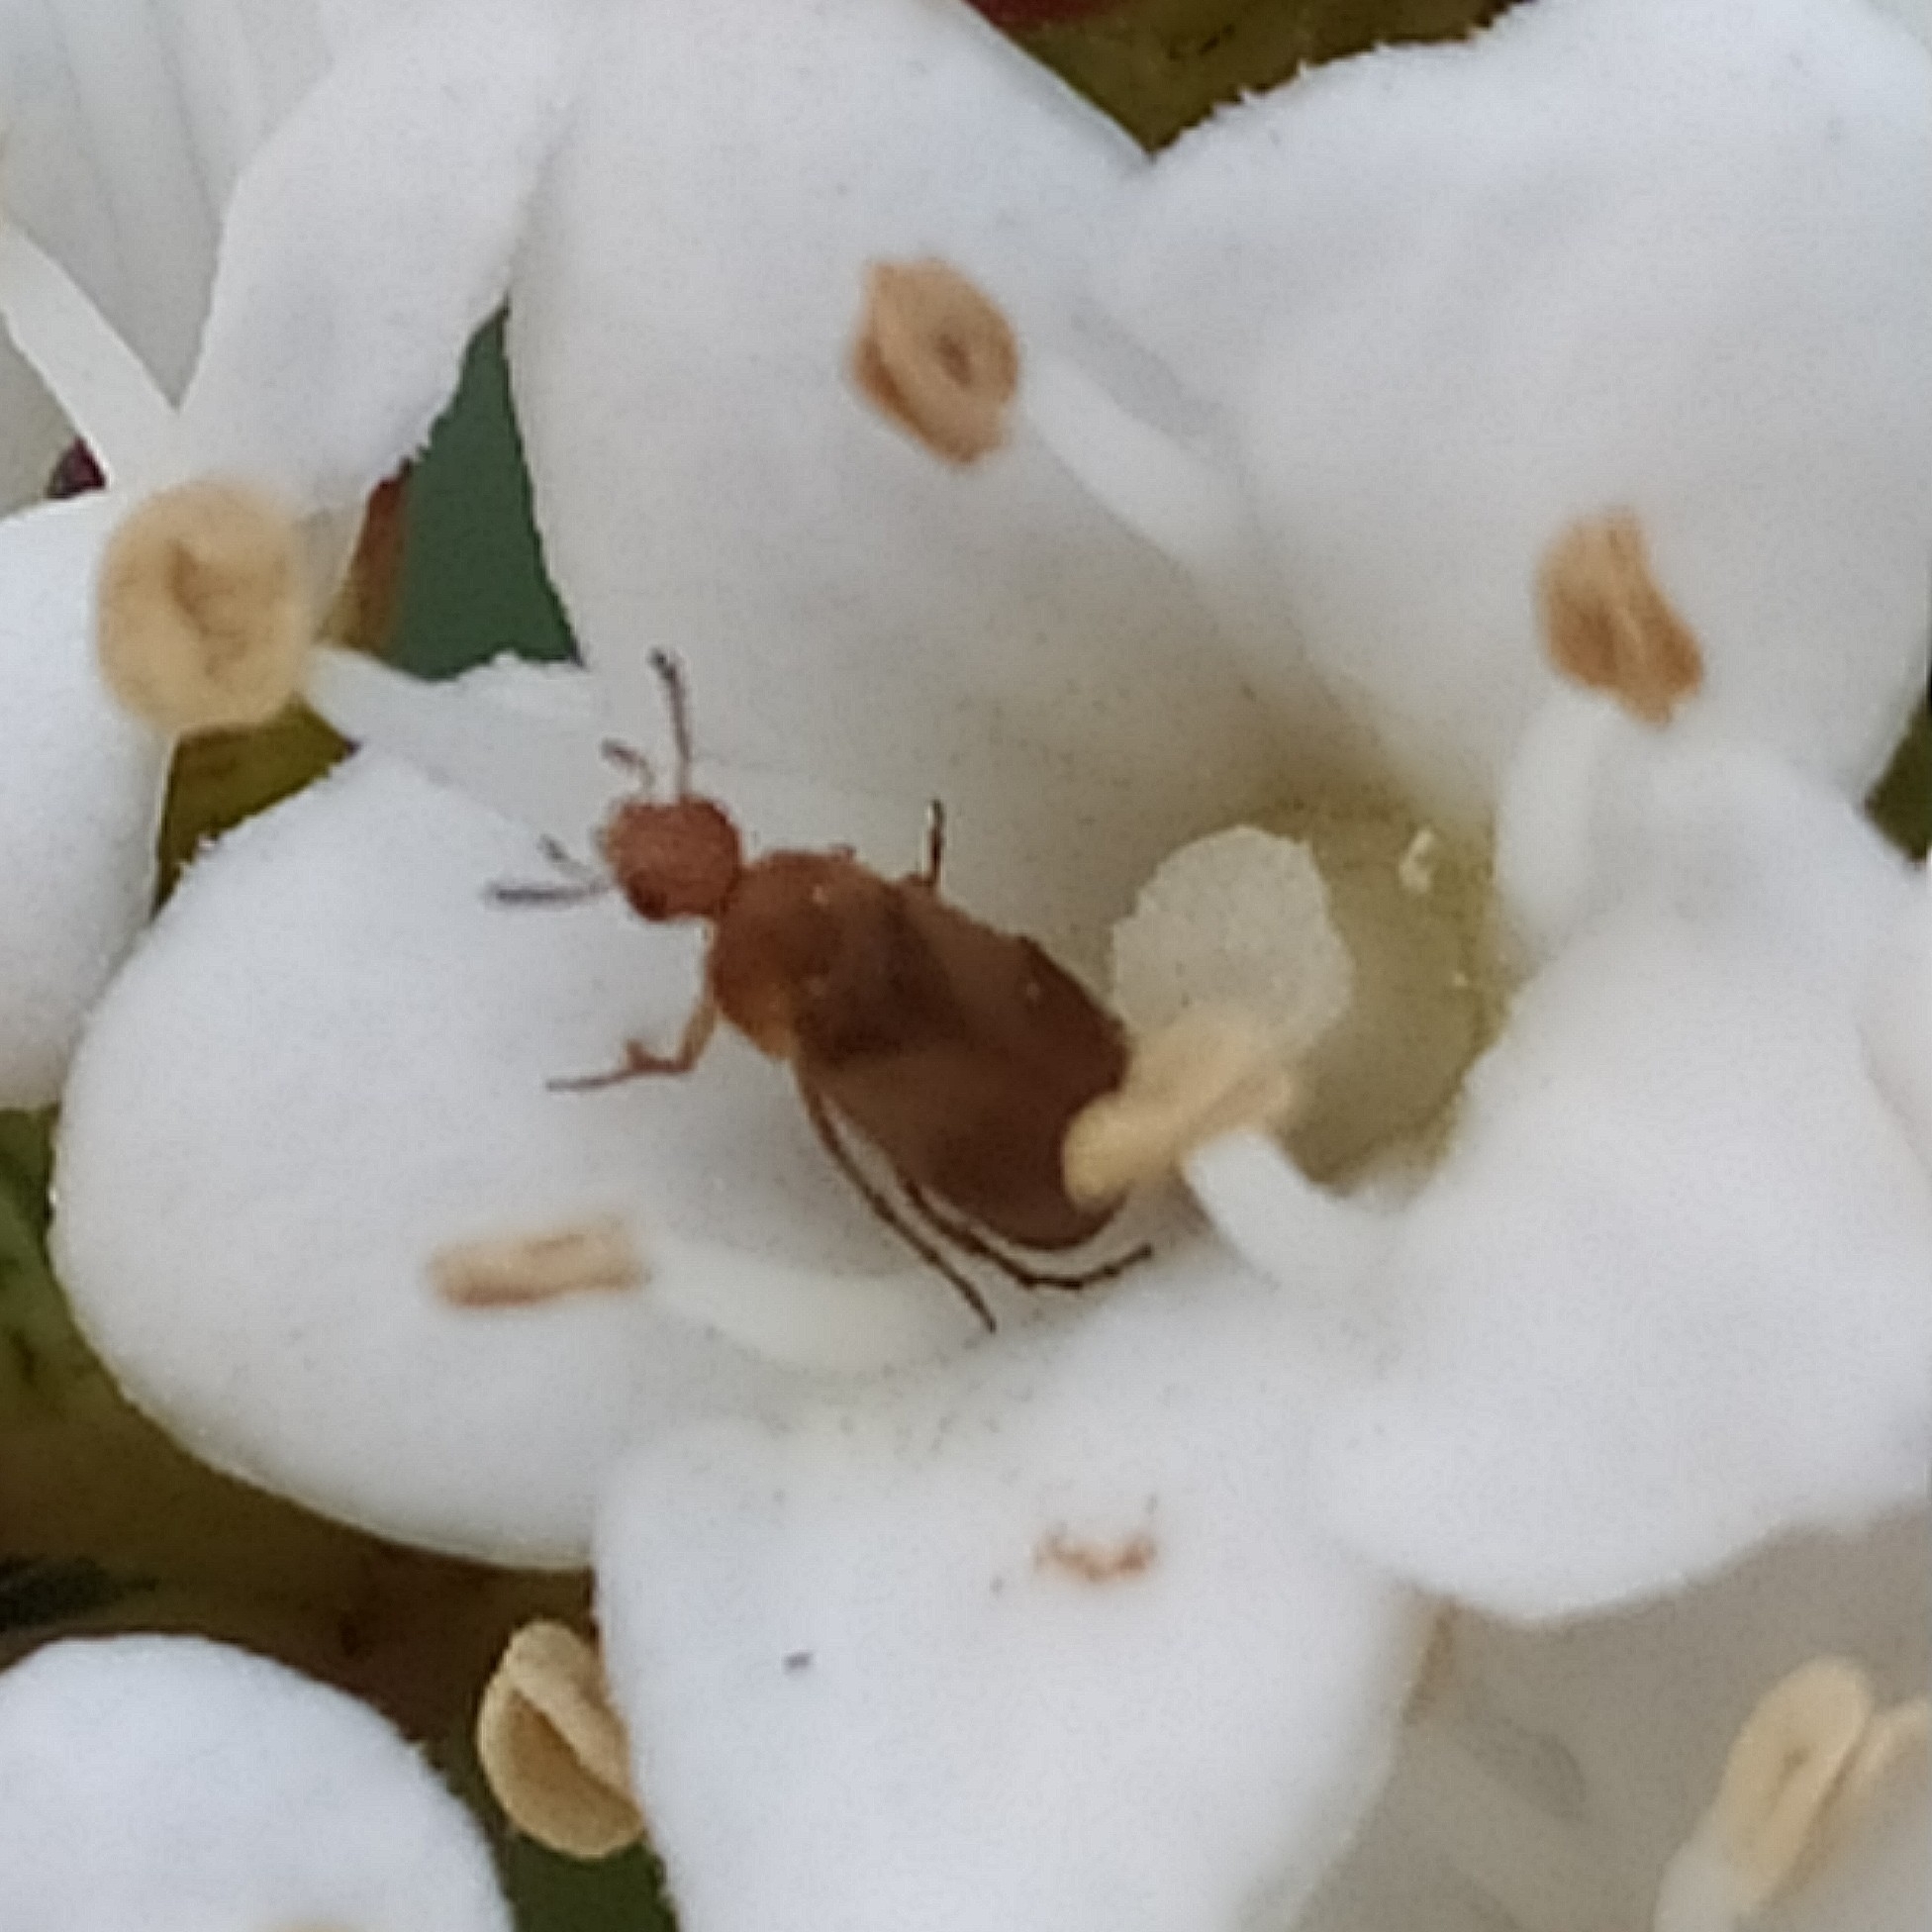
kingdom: Animalia
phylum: Arthropoda
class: Insecta
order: Coleoptera
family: Scraptiidae
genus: Anaspis
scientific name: Anaspis maculata
